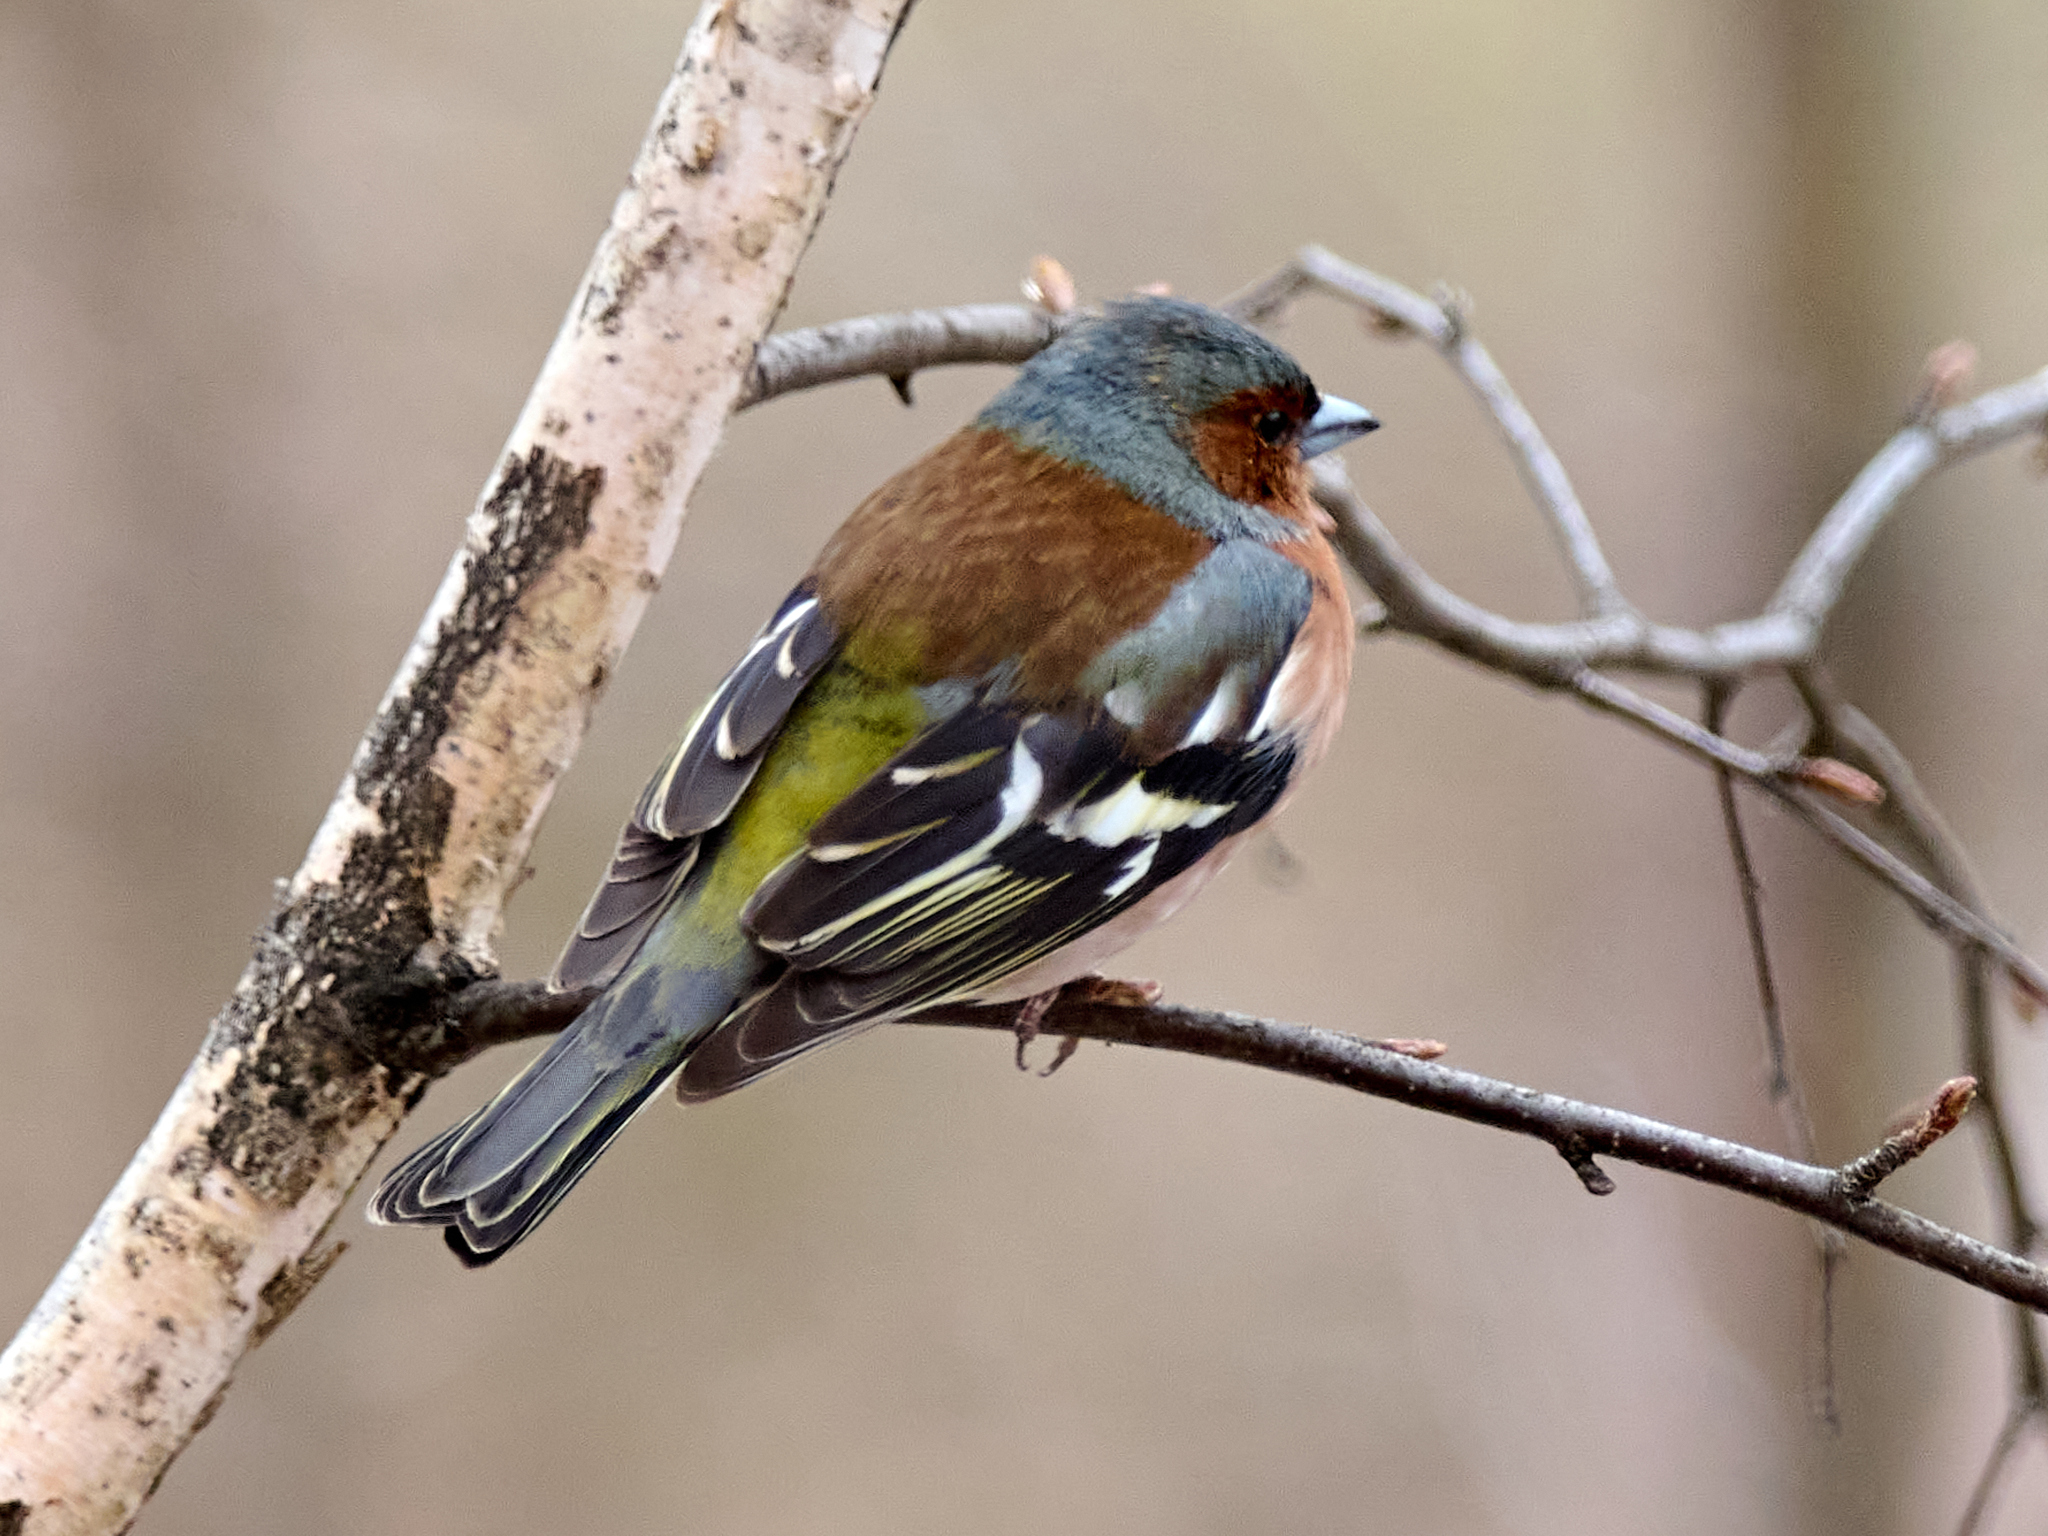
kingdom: Animalia
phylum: Chordata
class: Aves
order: Passeriformes
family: Fringillidae
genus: Fringilla
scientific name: Fringilla coelebs
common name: Common chaffinch
